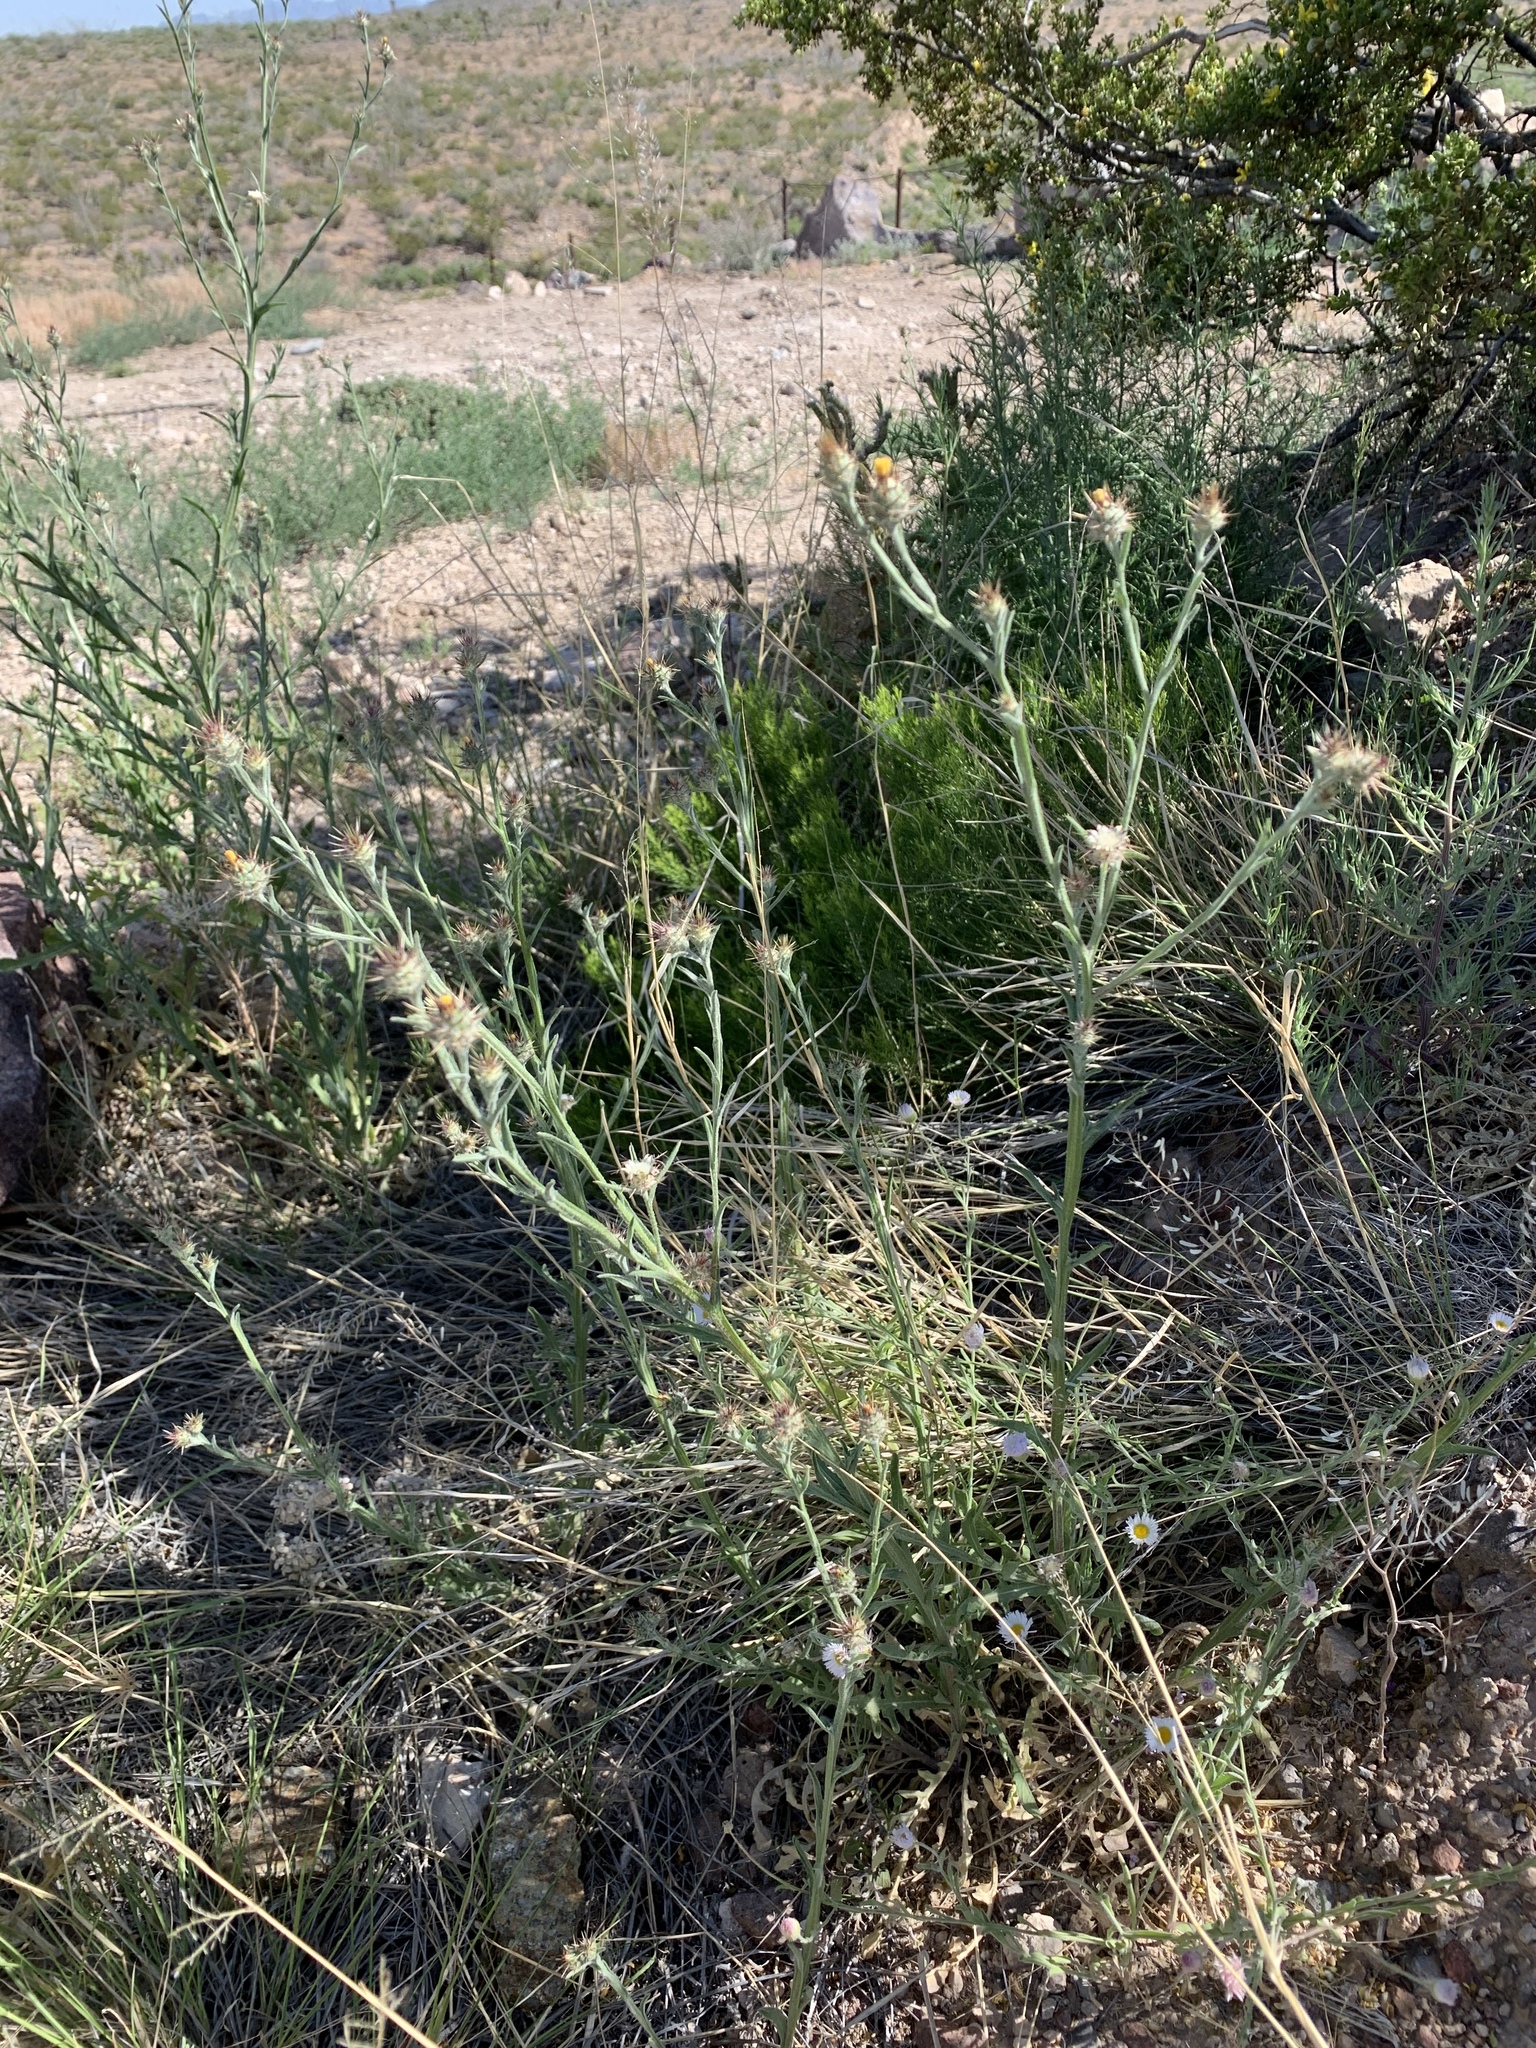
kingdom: Plantae
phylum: Tracheophyta
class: Magnoliopsida
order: Asterales
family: Asteraceae
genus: Centaurea
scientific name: Centaurea melitensis
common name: Maltese star-thistle
